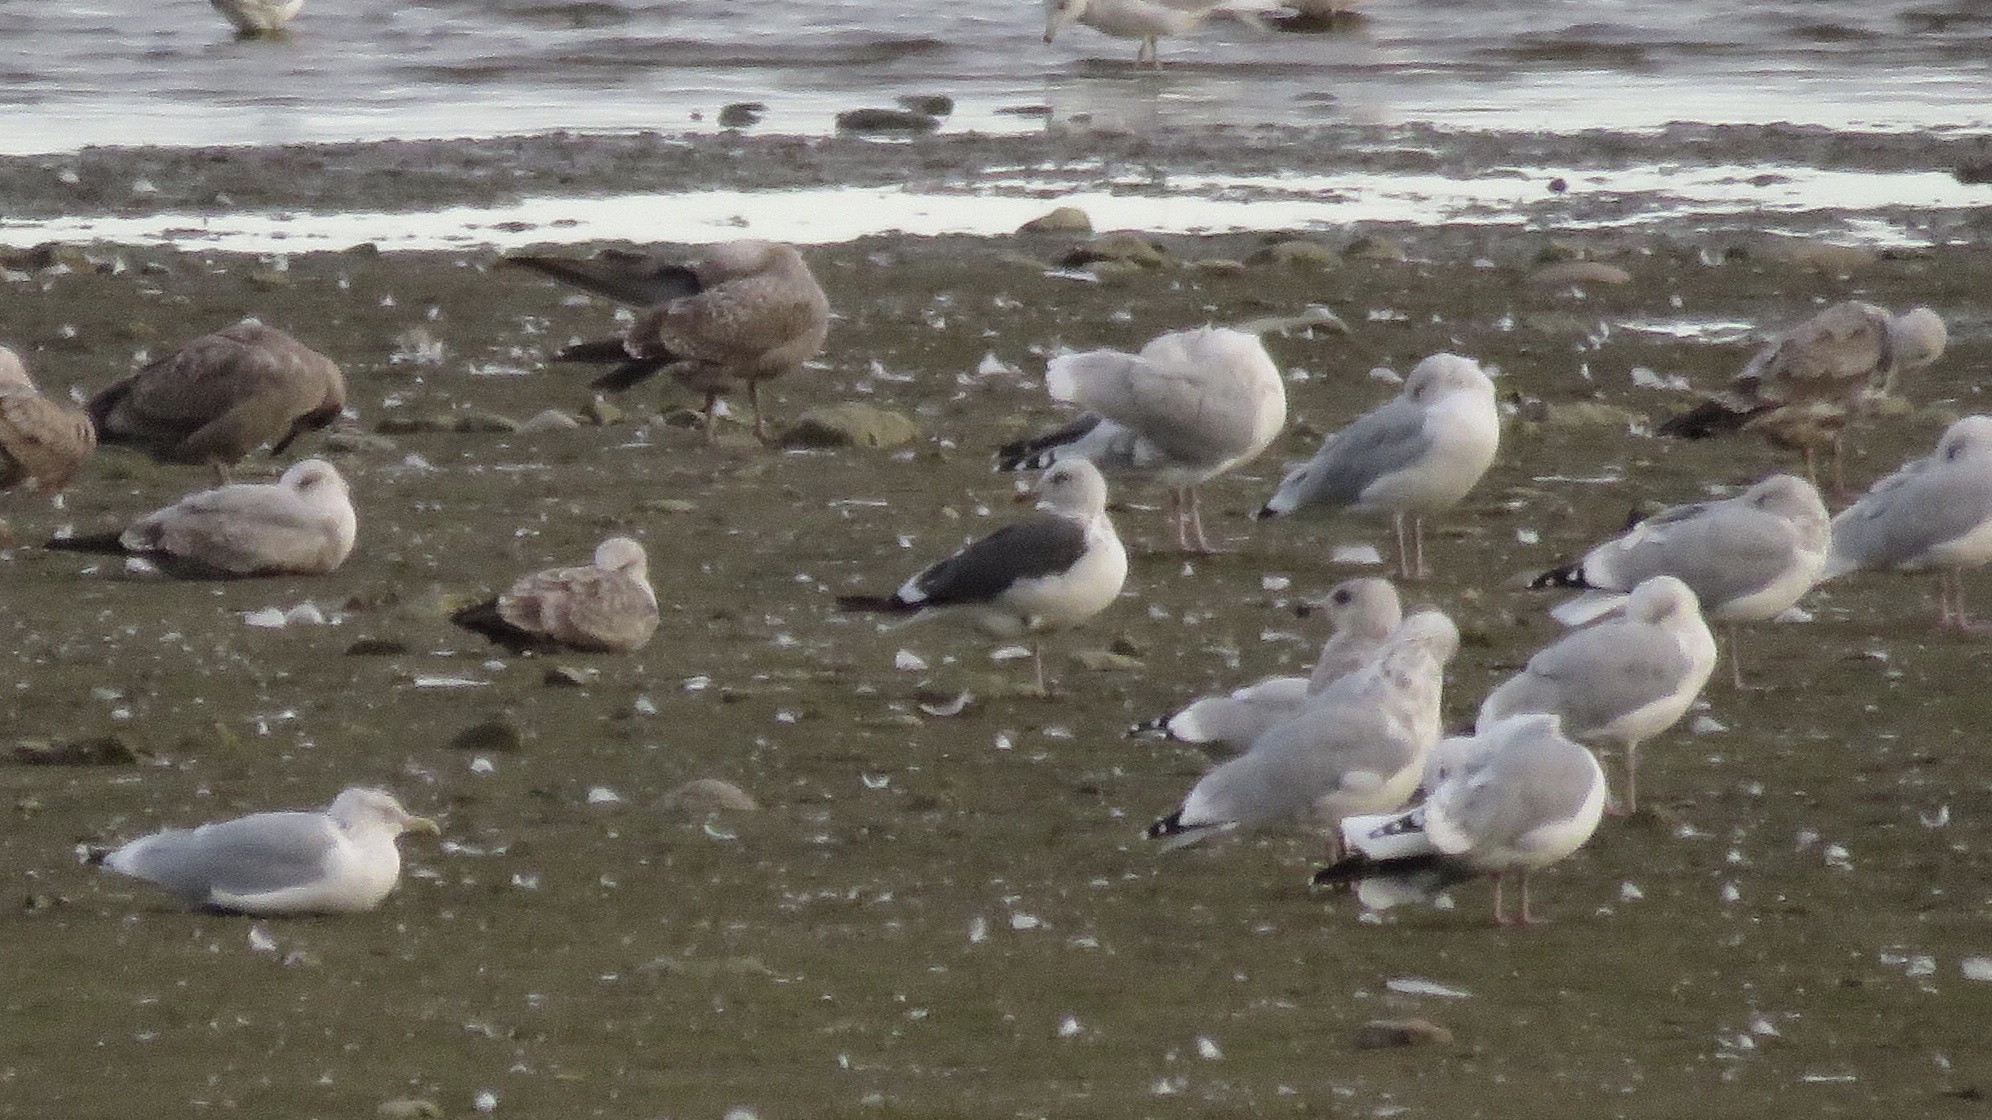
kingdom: Animalia
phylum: Chordata
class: Aves
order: Charadriiformes
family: Laridae
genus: Larus
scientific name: Larus fuscus
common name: Lesser black-backed gull
